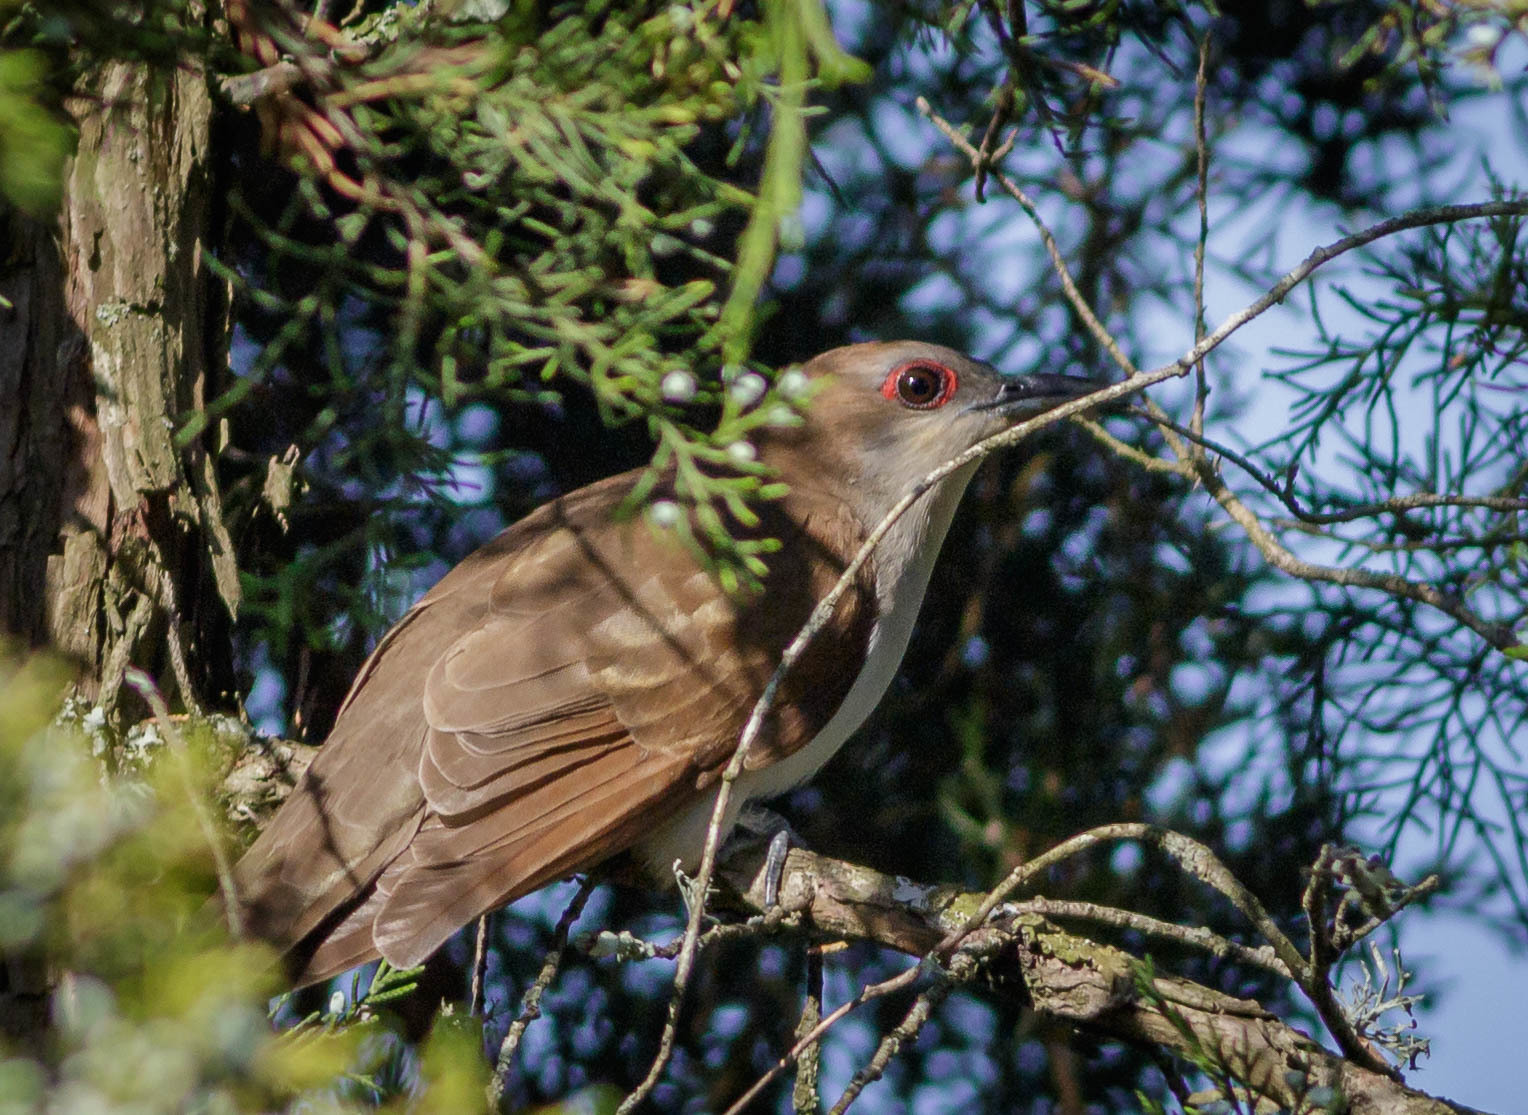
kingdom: Animalia
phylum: Chordata
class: Aves
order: Cuculiformes
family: Cuculidae
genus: Coccyzus
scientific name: Coccyzus erythropthalmus
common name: Black-billed cuckoo
